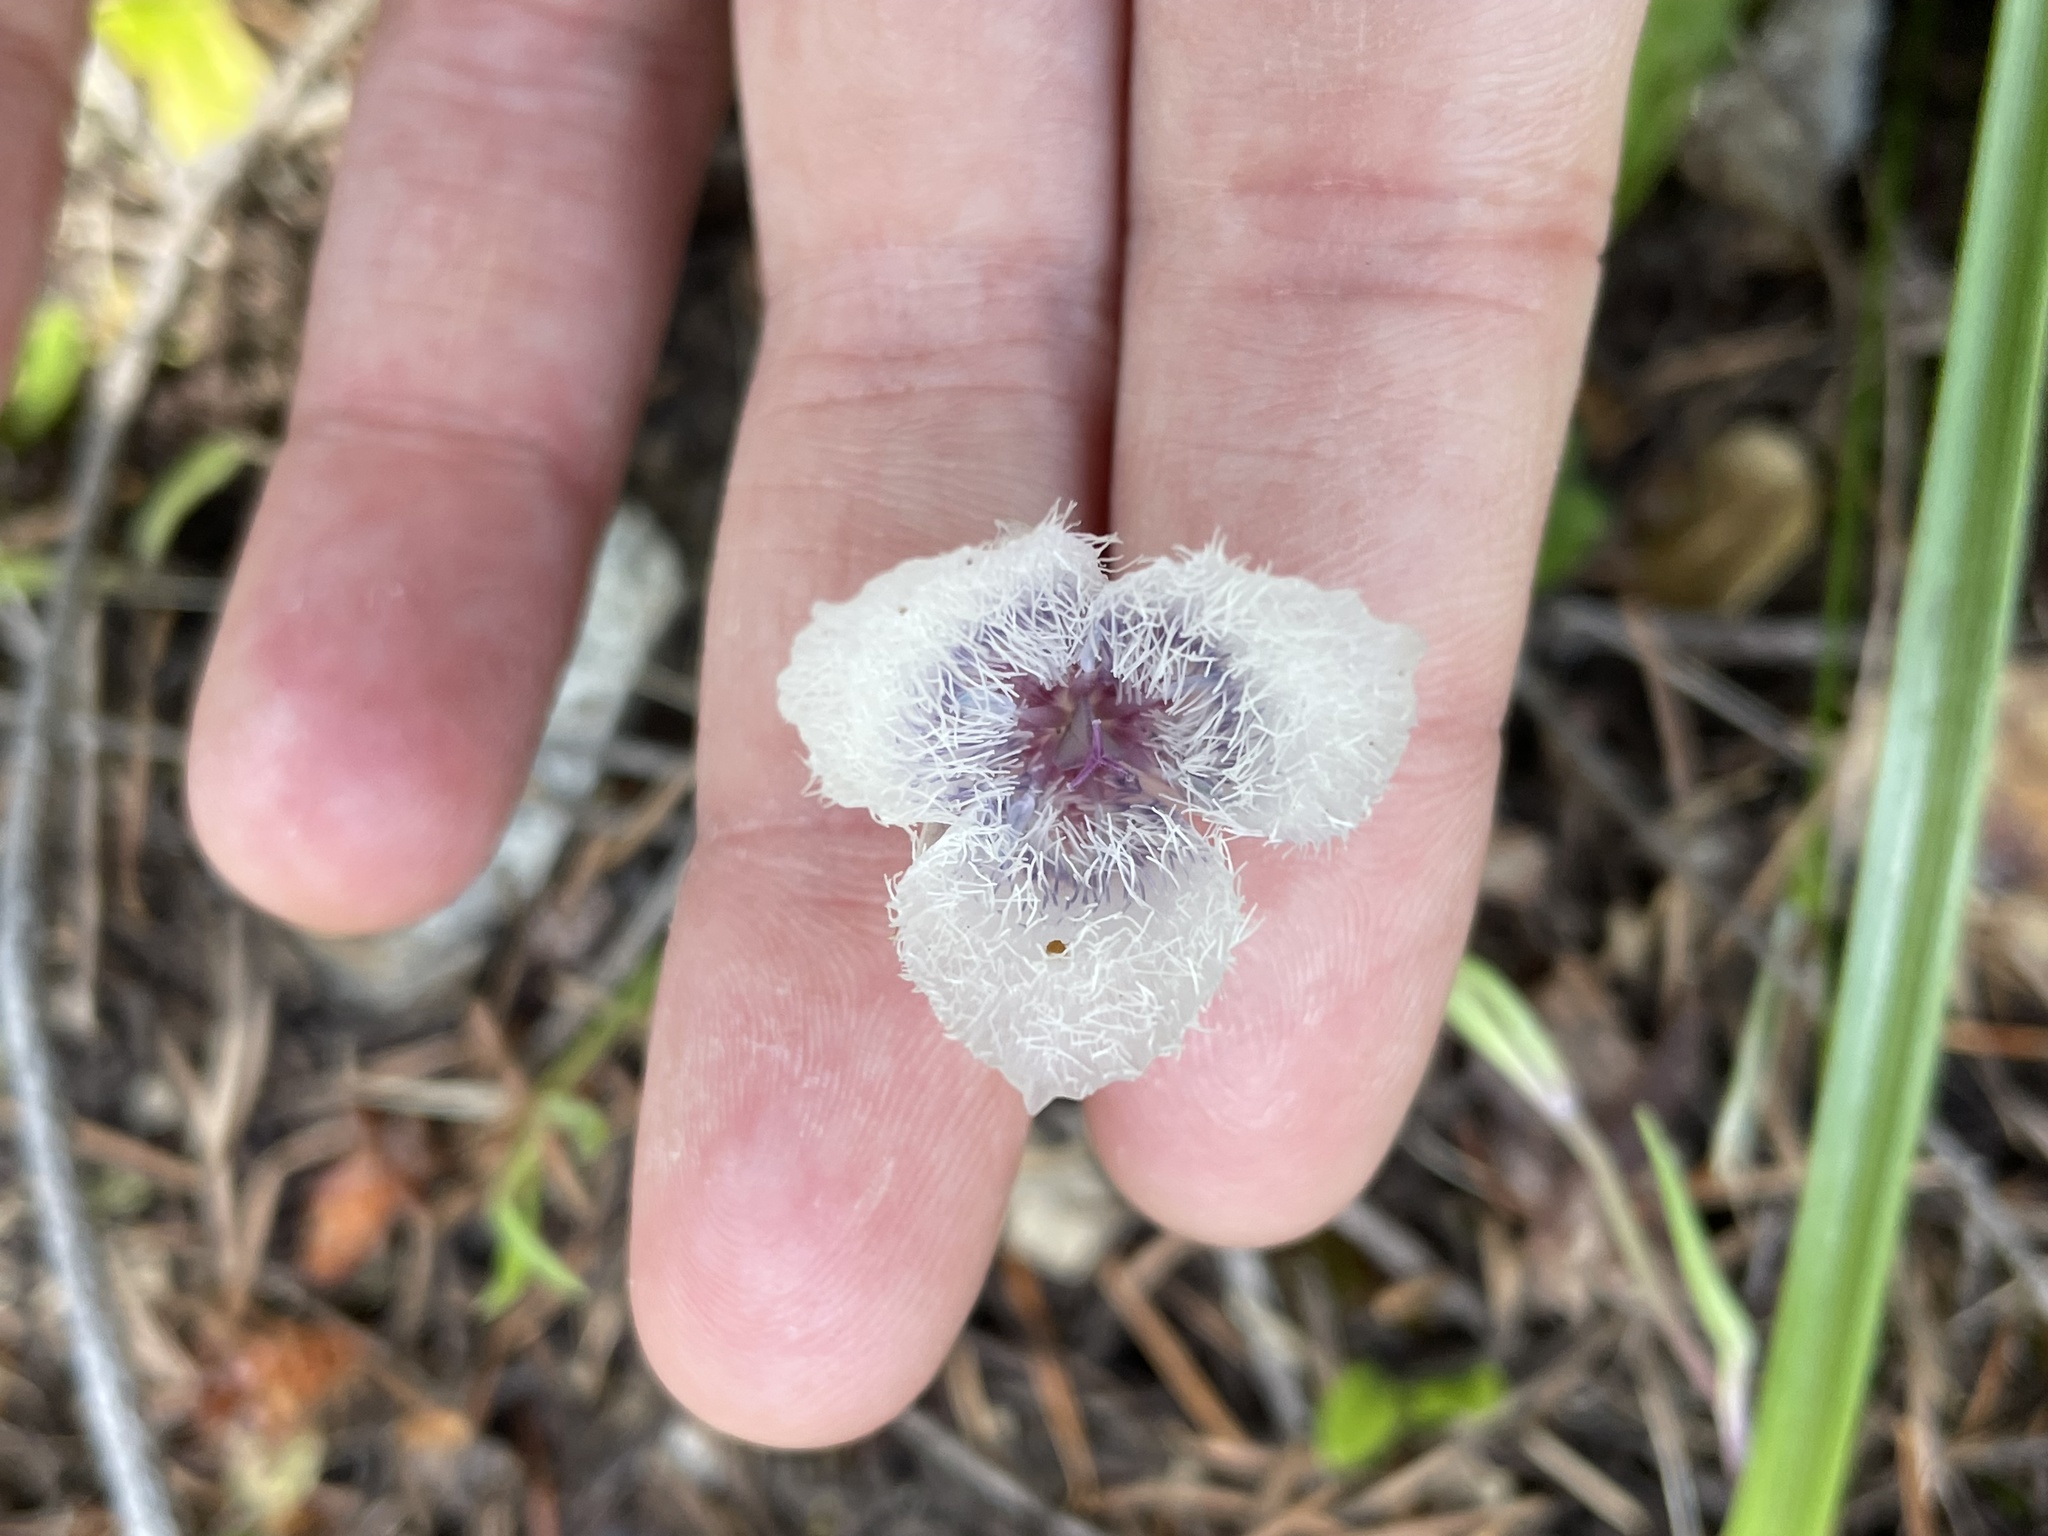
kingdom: Plantae
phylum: Tracheophyta
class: Liliopsida
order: Liliales
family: Liliaceae
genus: Calochortus
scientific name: Calochortus tolmiei
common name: Pussy-ears
